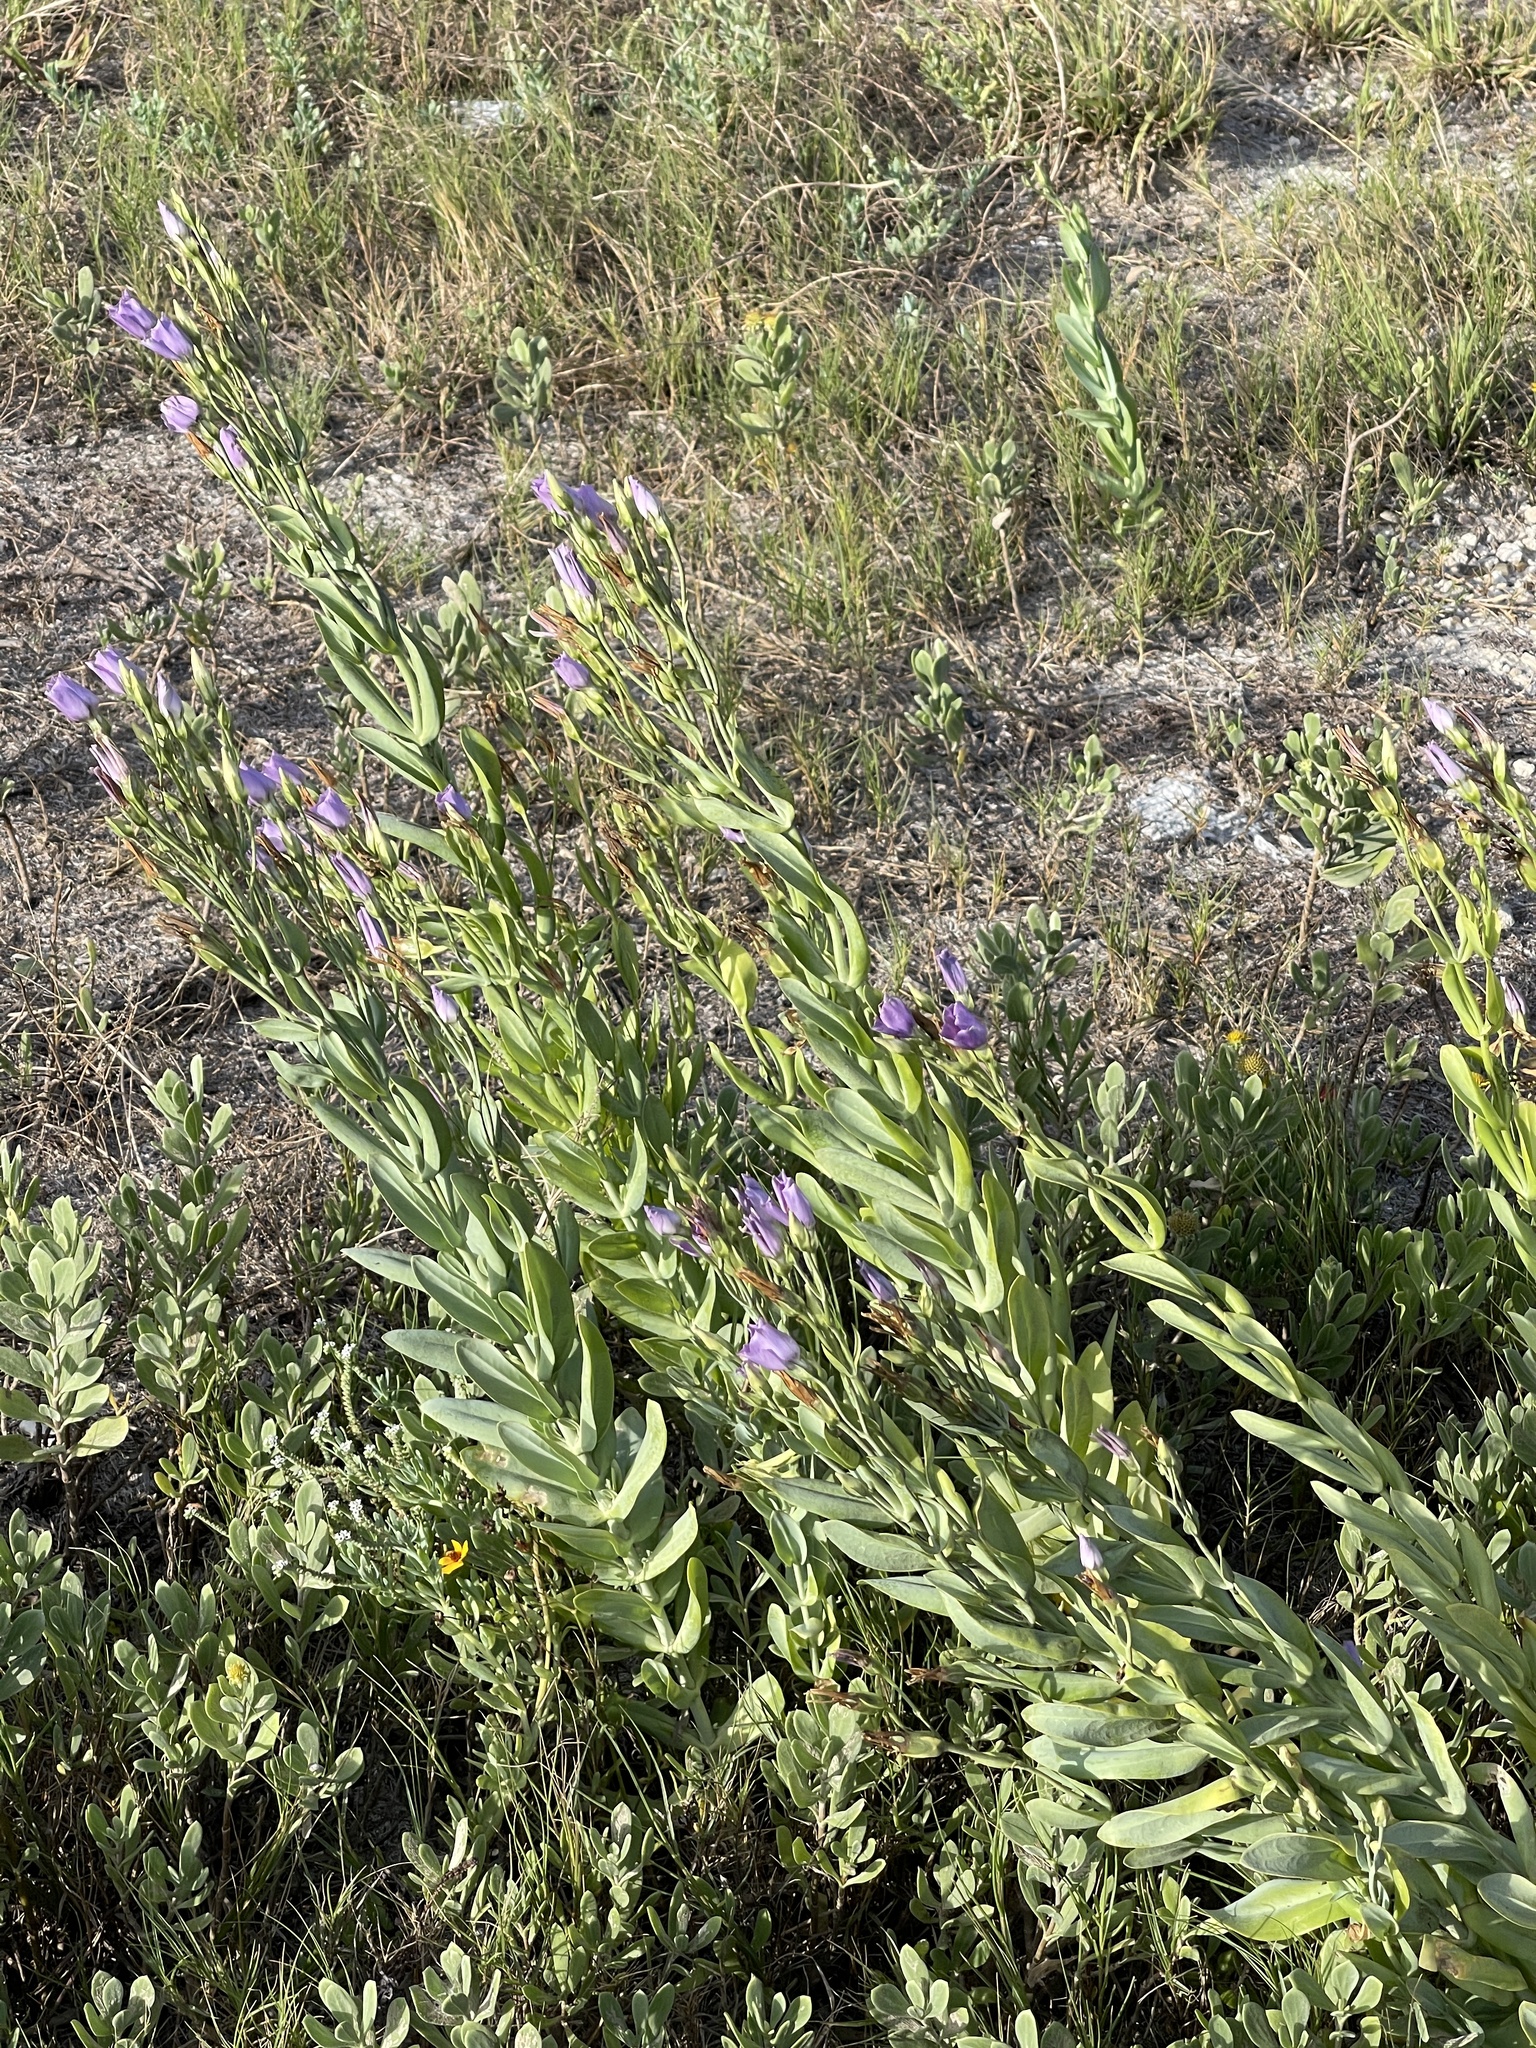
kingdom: Plantae
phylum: Tracheophyta
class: Magnoliopsida
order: Gentianales
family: Gentianaceae
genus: Eustoma
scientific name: Eustoma exaltatum
